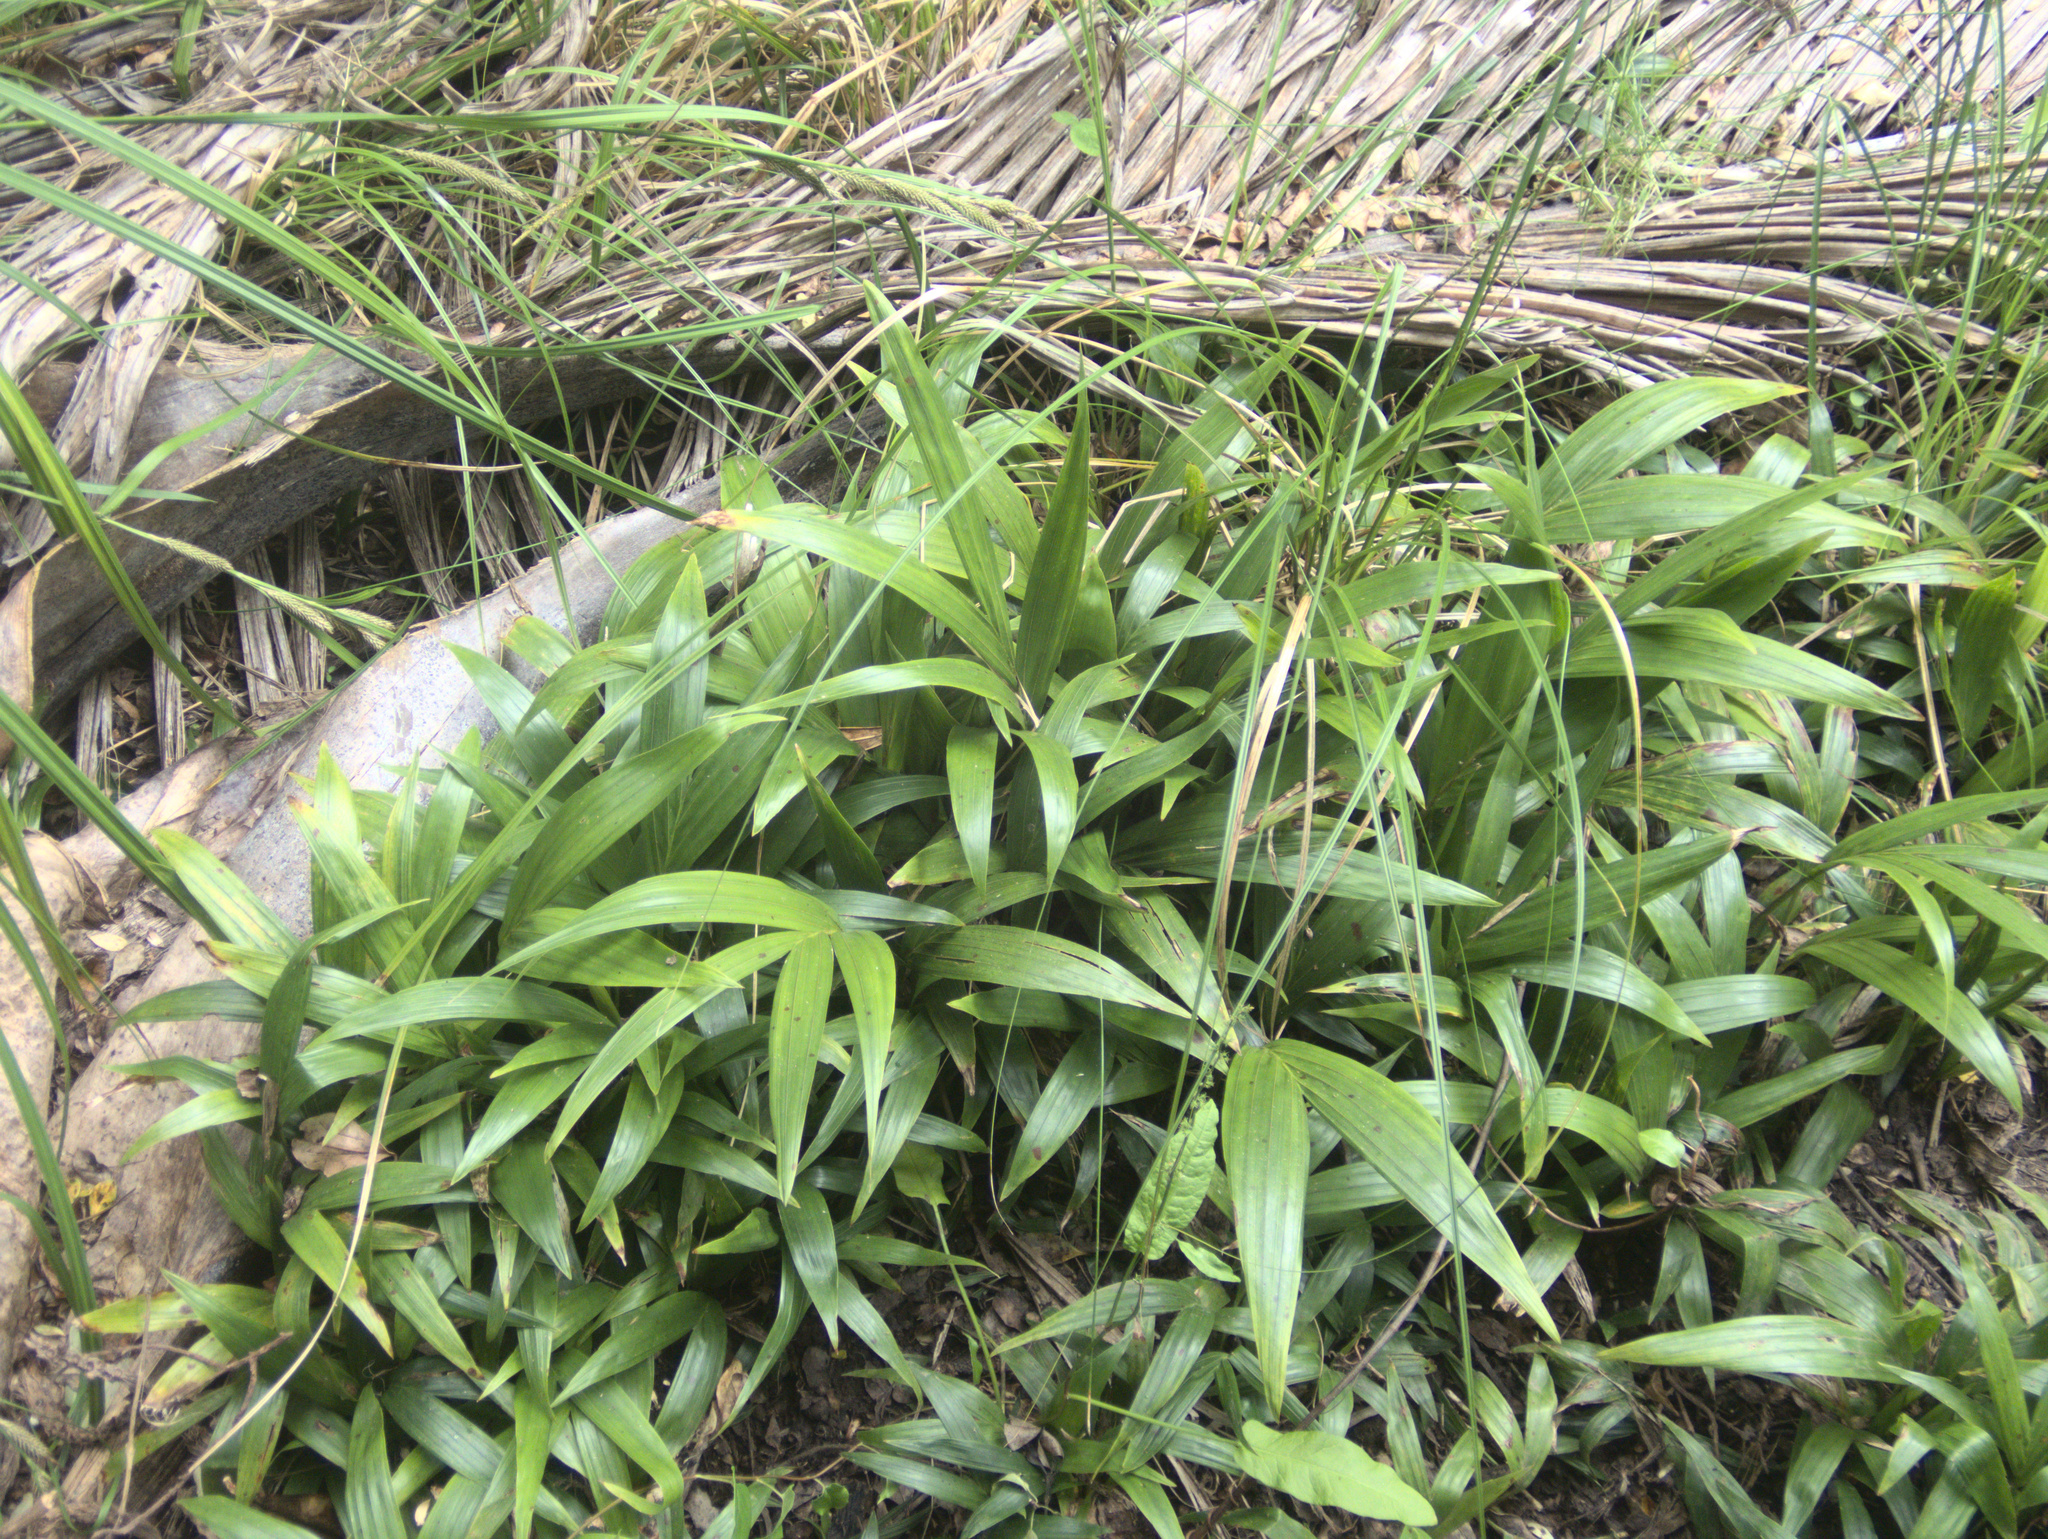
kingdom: Plantae
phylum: Tracheophyta
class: Liliopsida
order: Arecales
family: Arecaceae
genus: Rhopalostylis
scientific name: Rhopalostylis sapida
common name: Feather-duster palm
